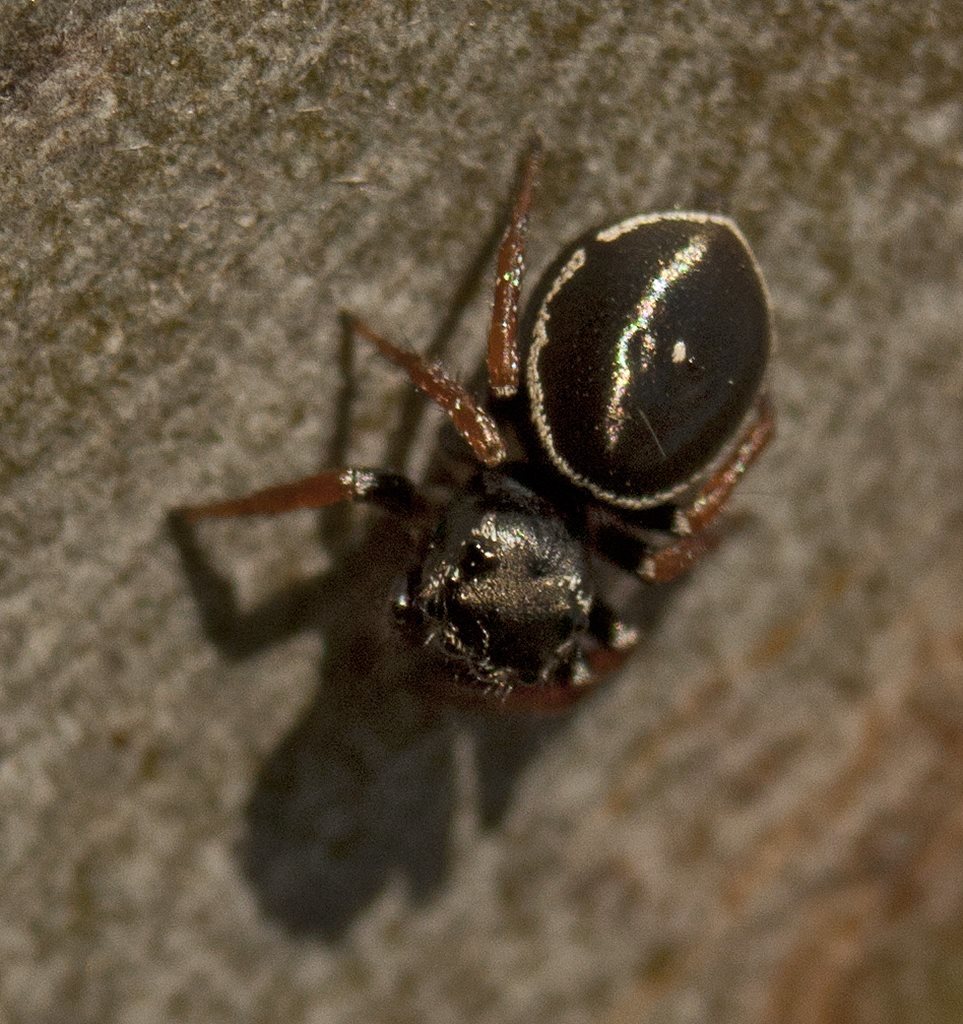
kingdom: Animalia
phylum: Arthropoda
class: Arachnida
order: Araneae
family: Salticidae
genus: Zenodorus
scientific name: Zenodorus orbiculatus
